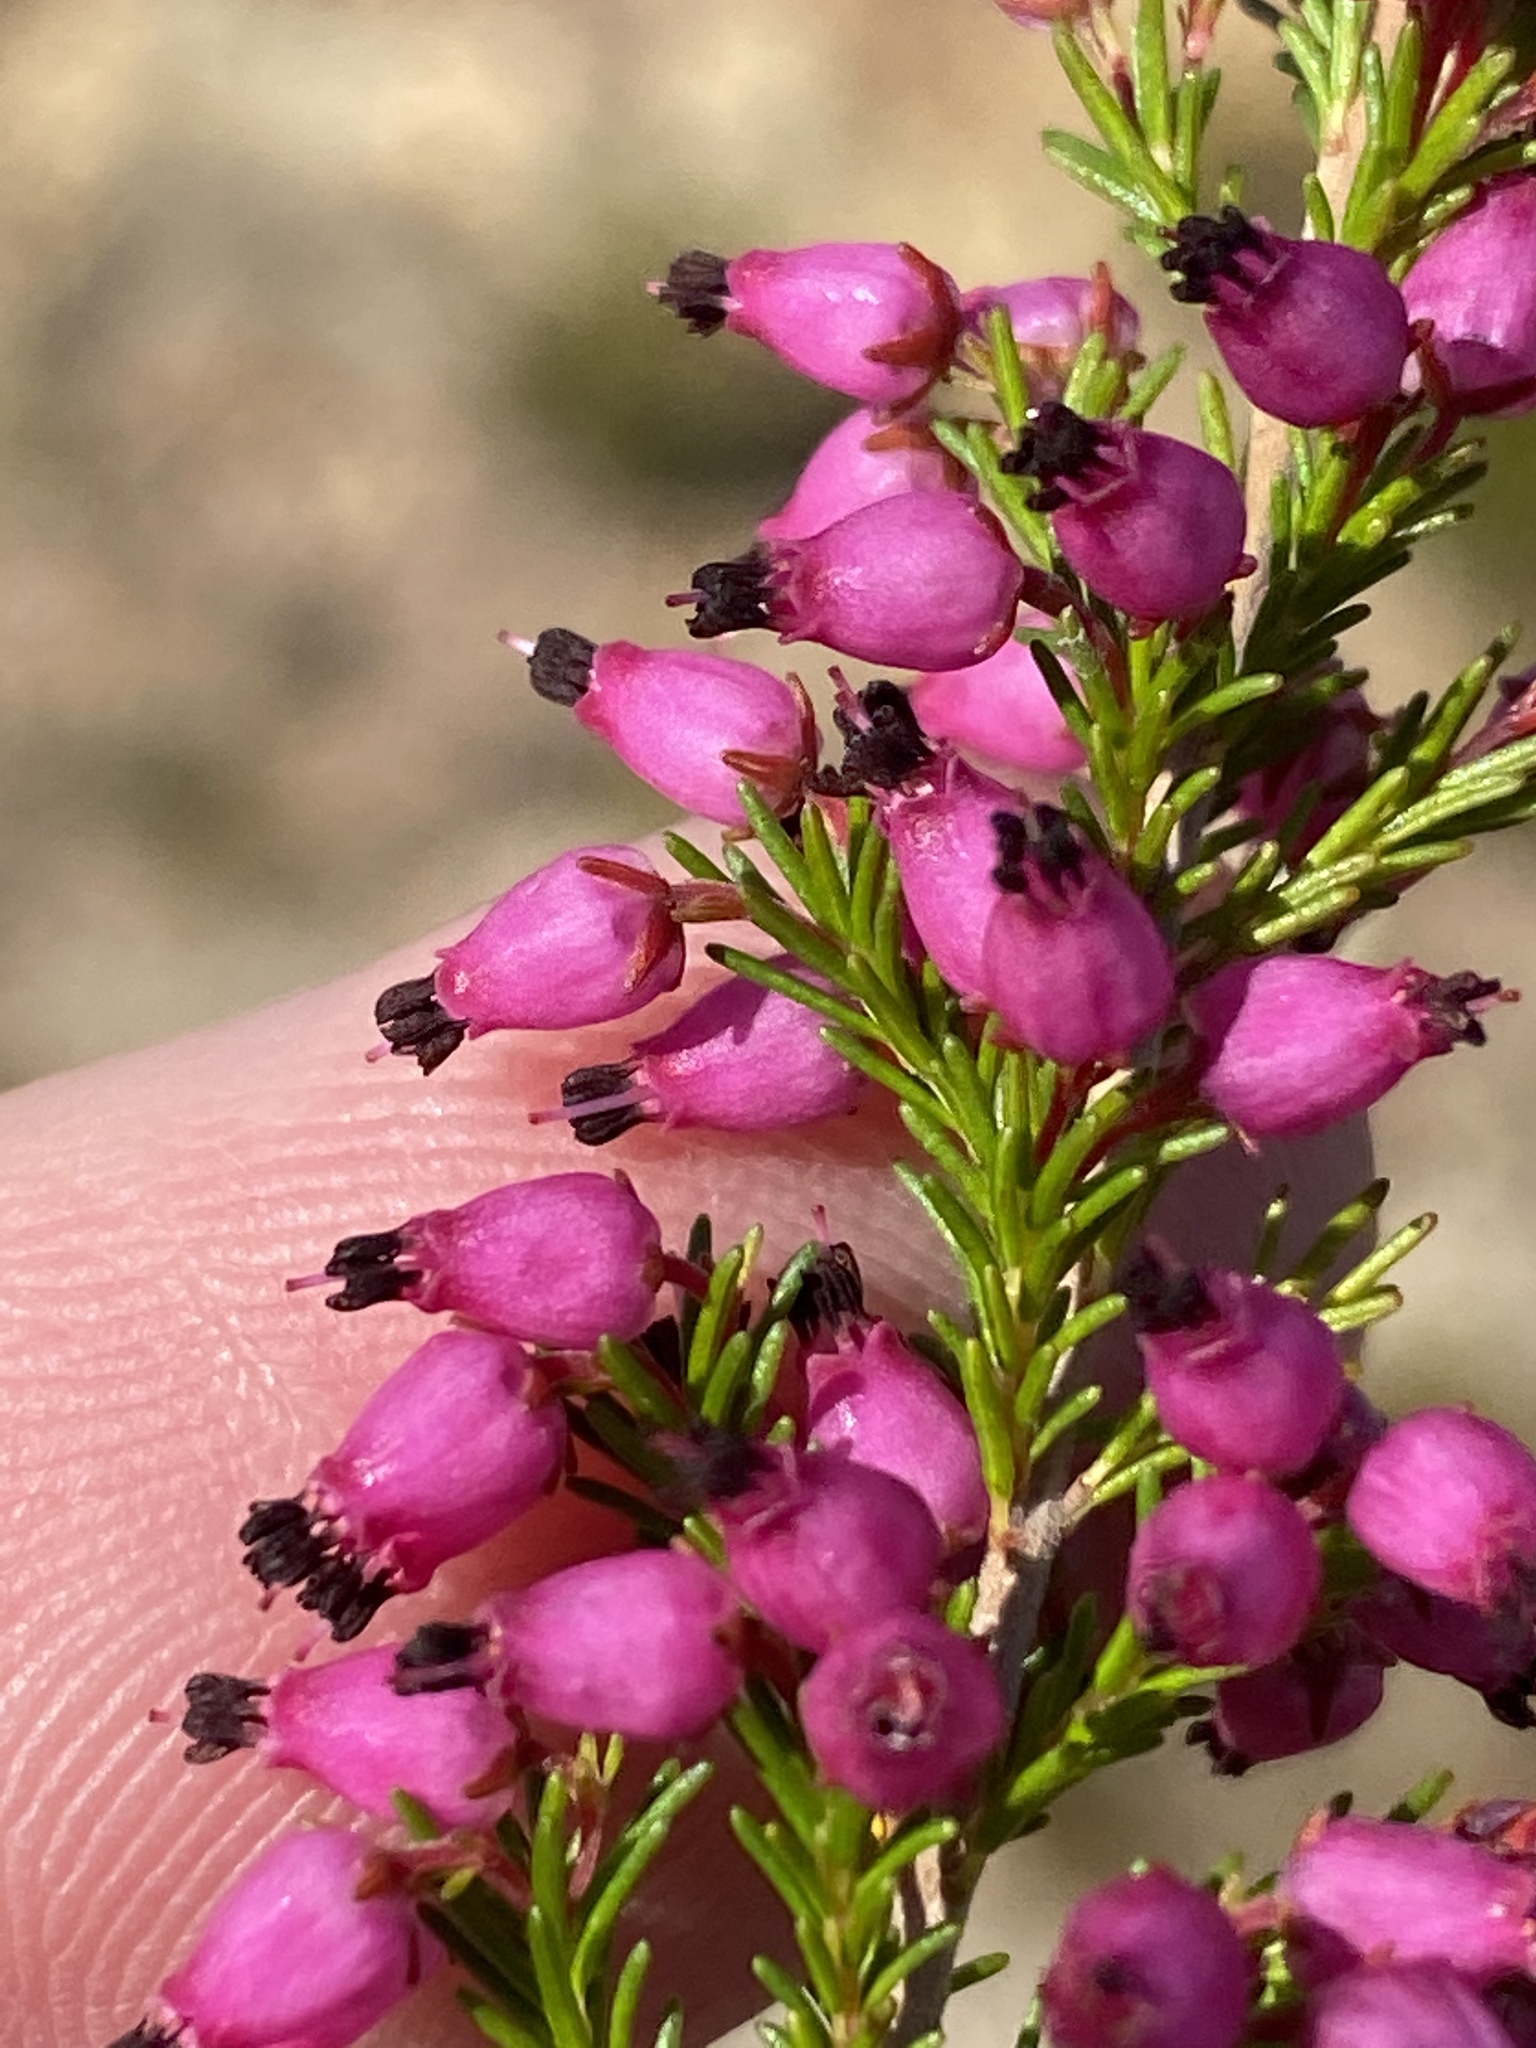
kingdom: Plantae
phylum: Tracheophyta
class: Magnoliopsida
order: Ericales
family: Ericaceae
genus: Erica
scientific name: Erica nutans
